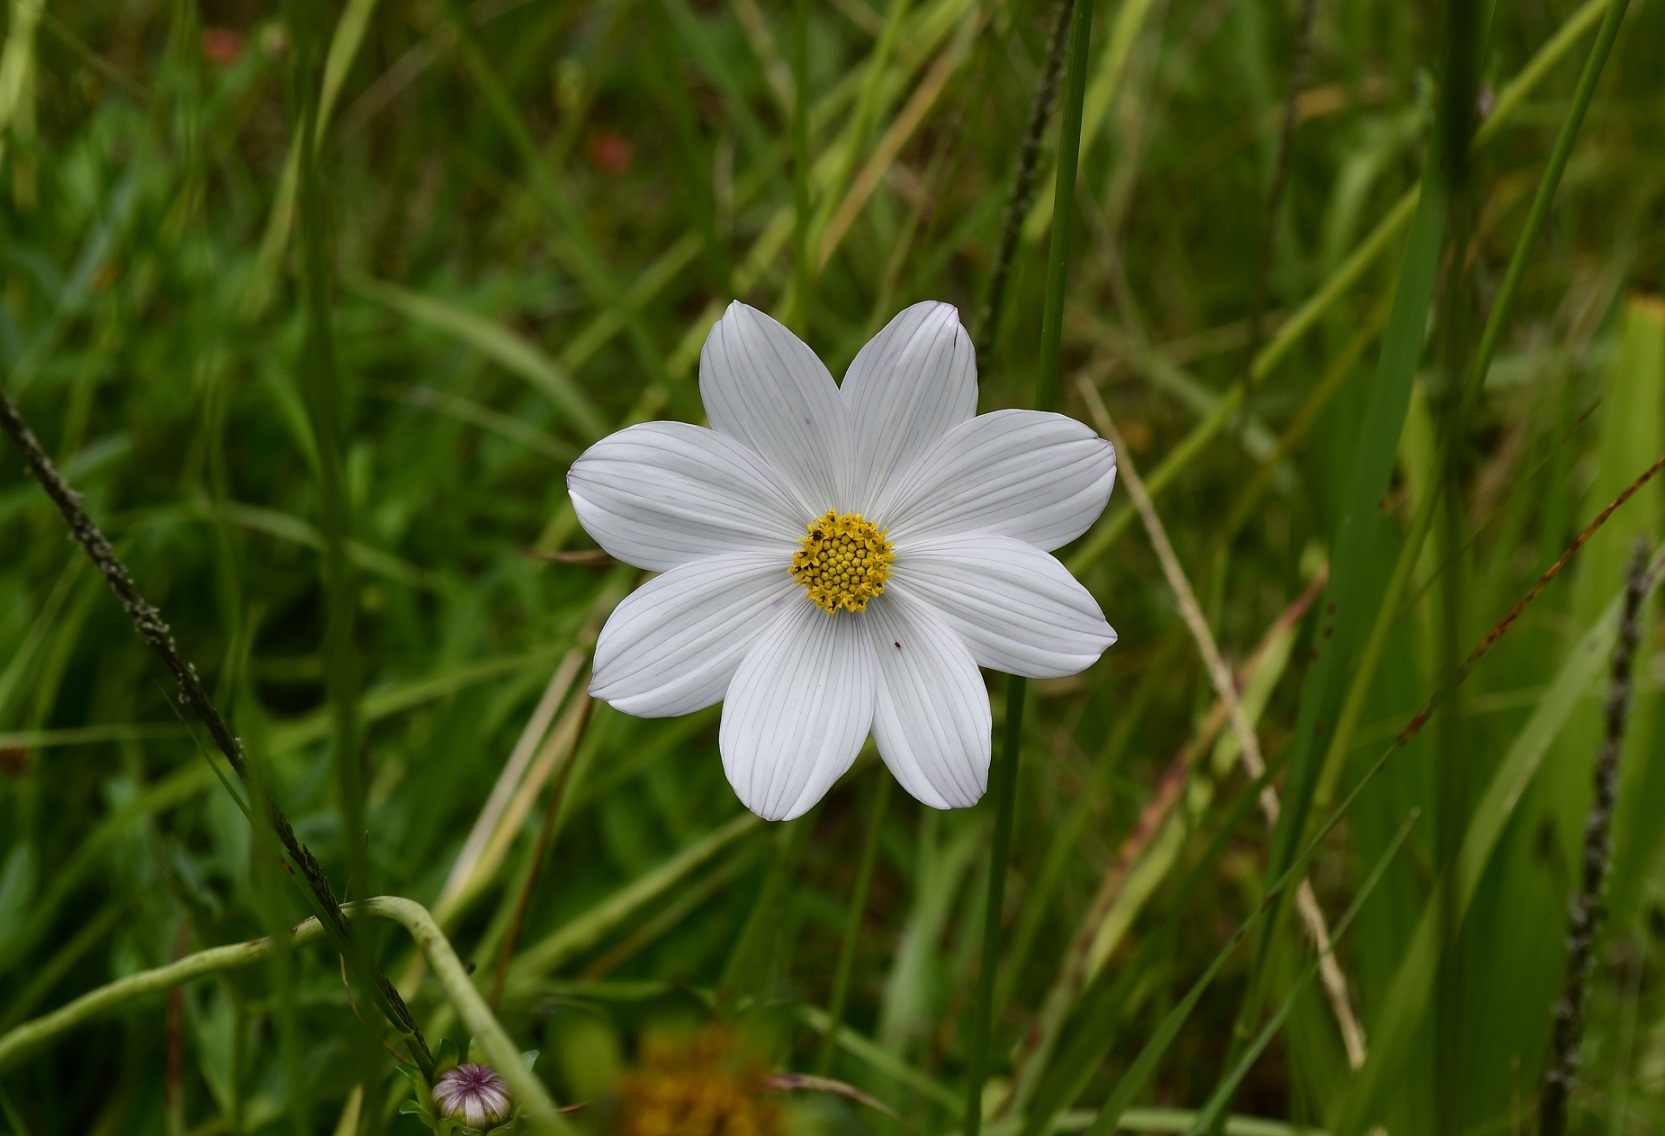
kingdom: Plantae
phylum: Tracheophyta
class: Magnoliopsida
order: Asterales
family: Asteraceae
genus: Cosmos
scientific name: Cosmos diversifolius
